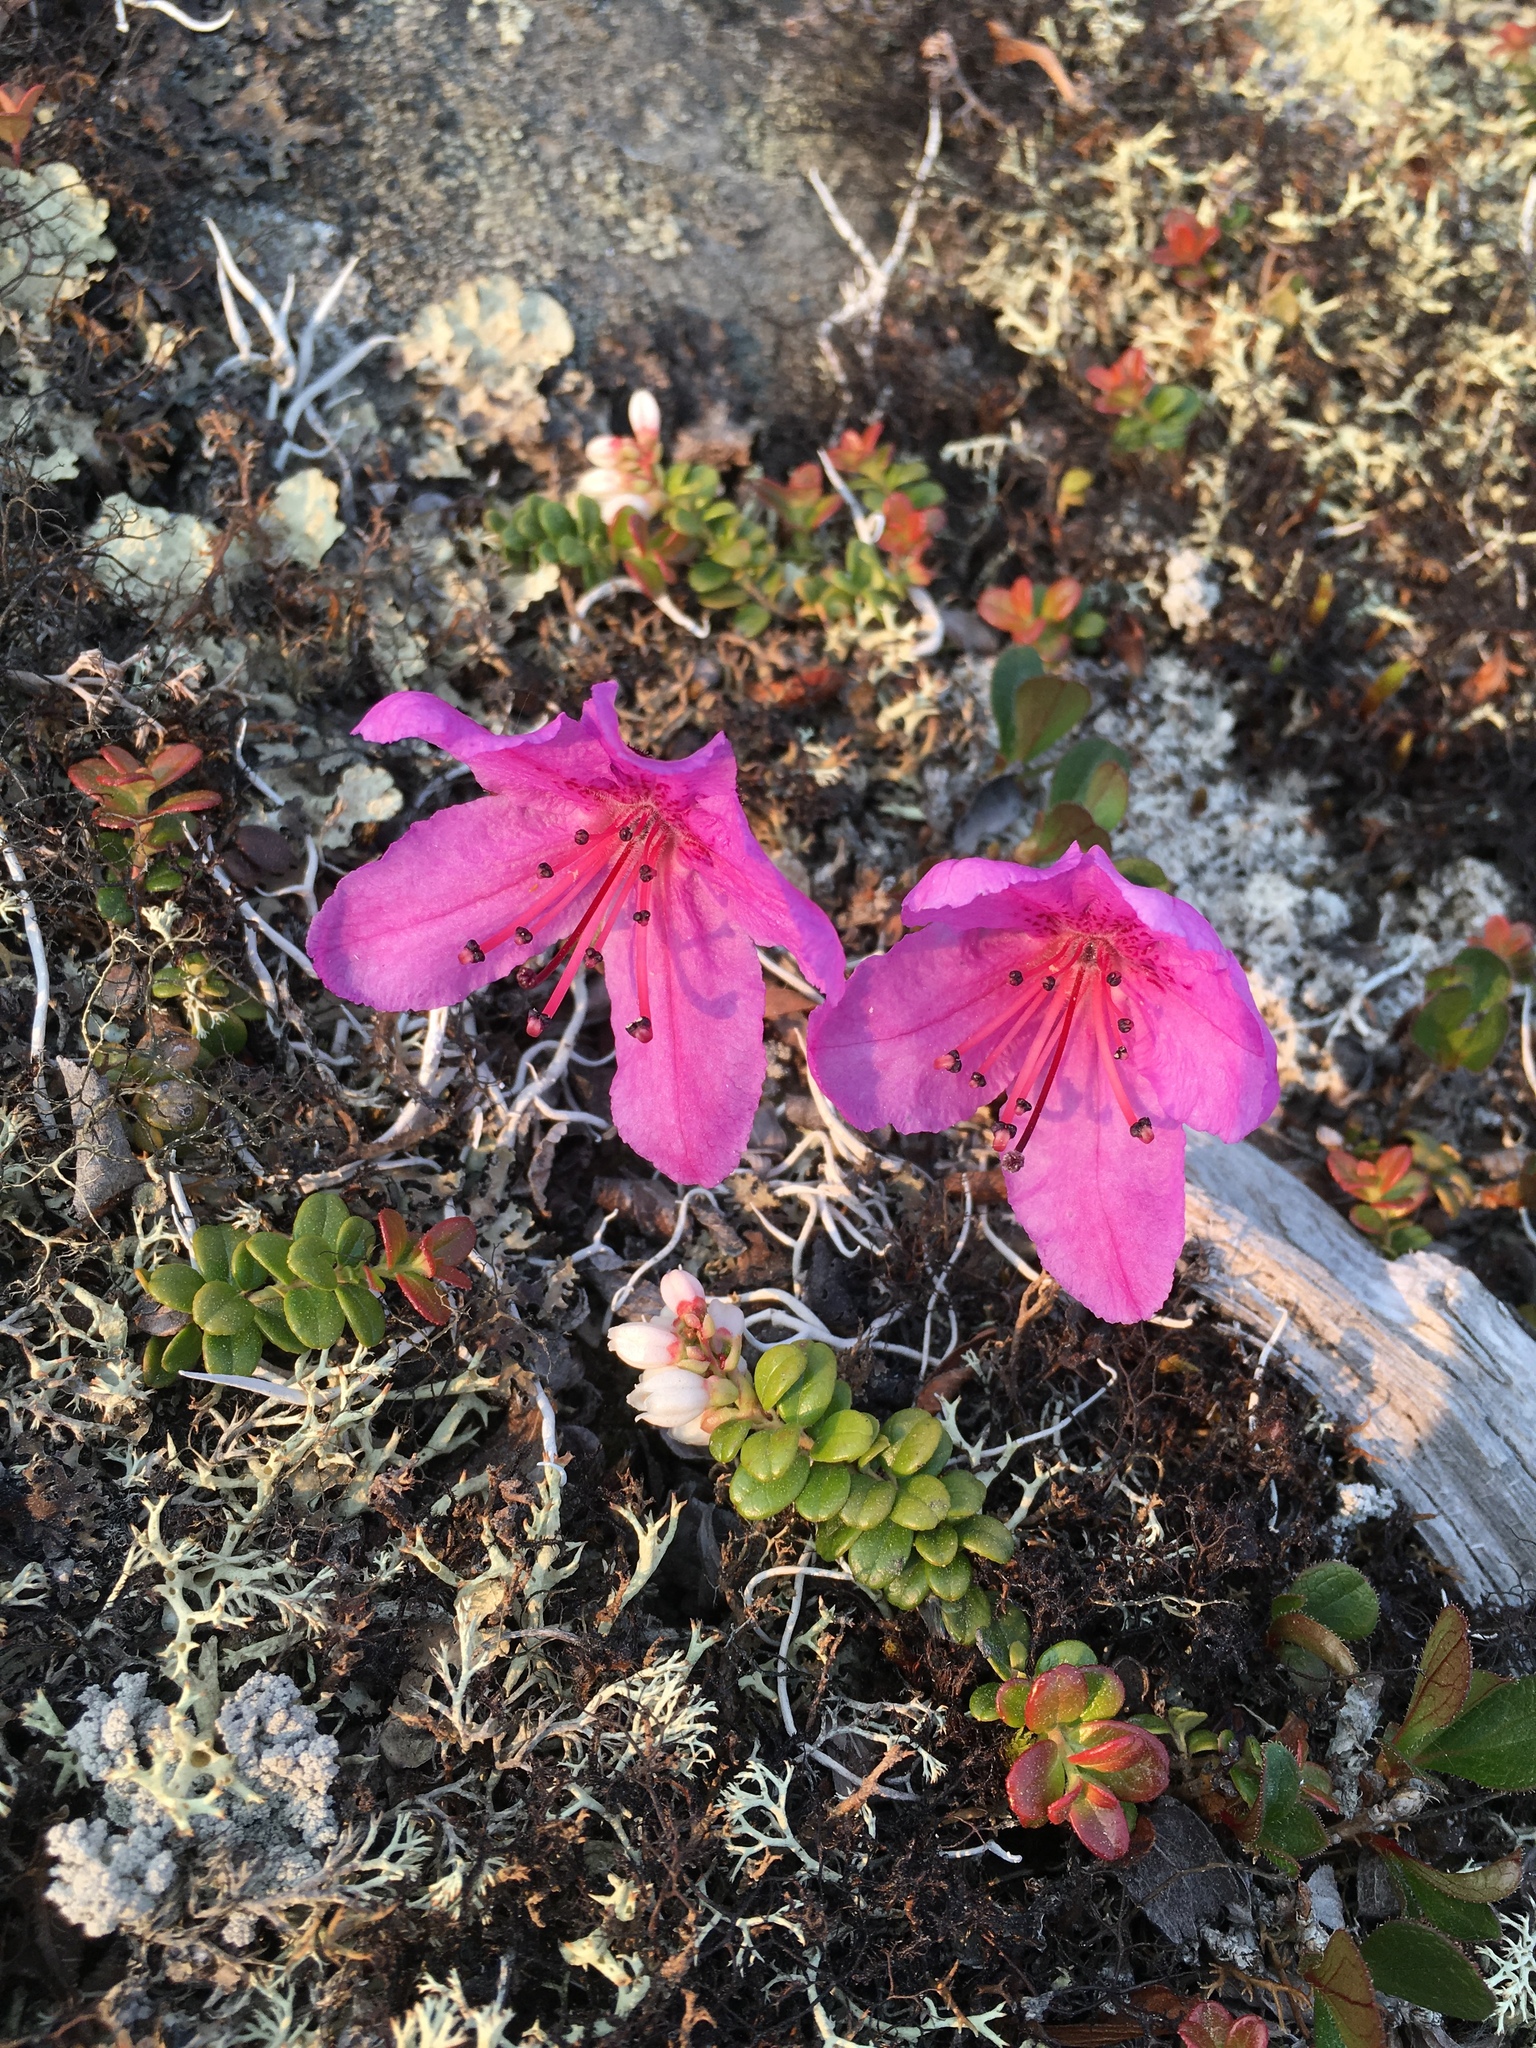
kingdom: Plantae
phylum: Tracheophyta
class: Magnoliopsida
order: Ericales
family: Ericaceae
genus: Rhododendron
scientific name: Rhododendron glandulosum
